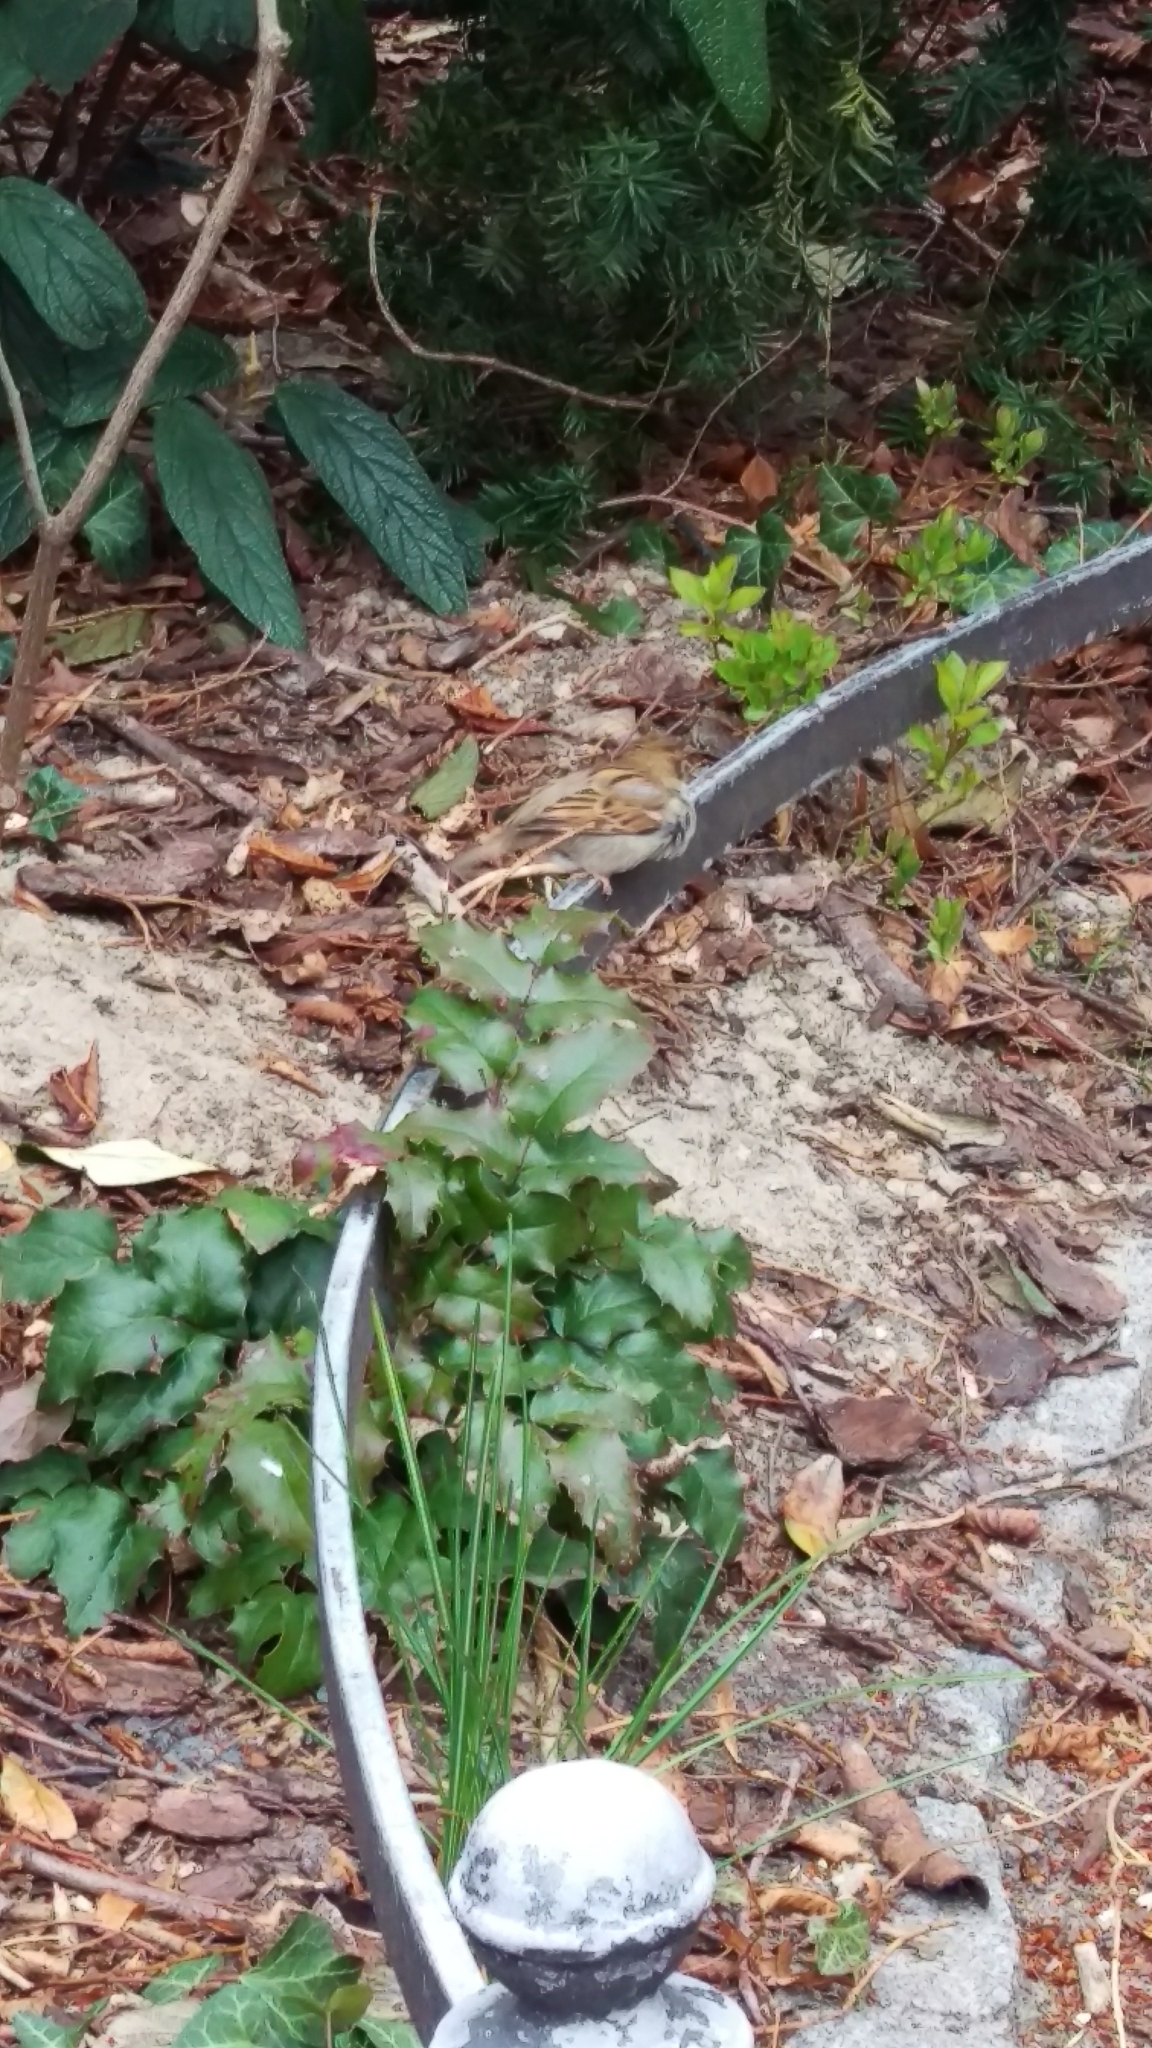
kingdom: Animalia
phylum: Chordata
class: Aves
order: Passeriformes
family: Passeridae
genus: Passer
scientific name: Passer domesticus
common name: House sparrow
